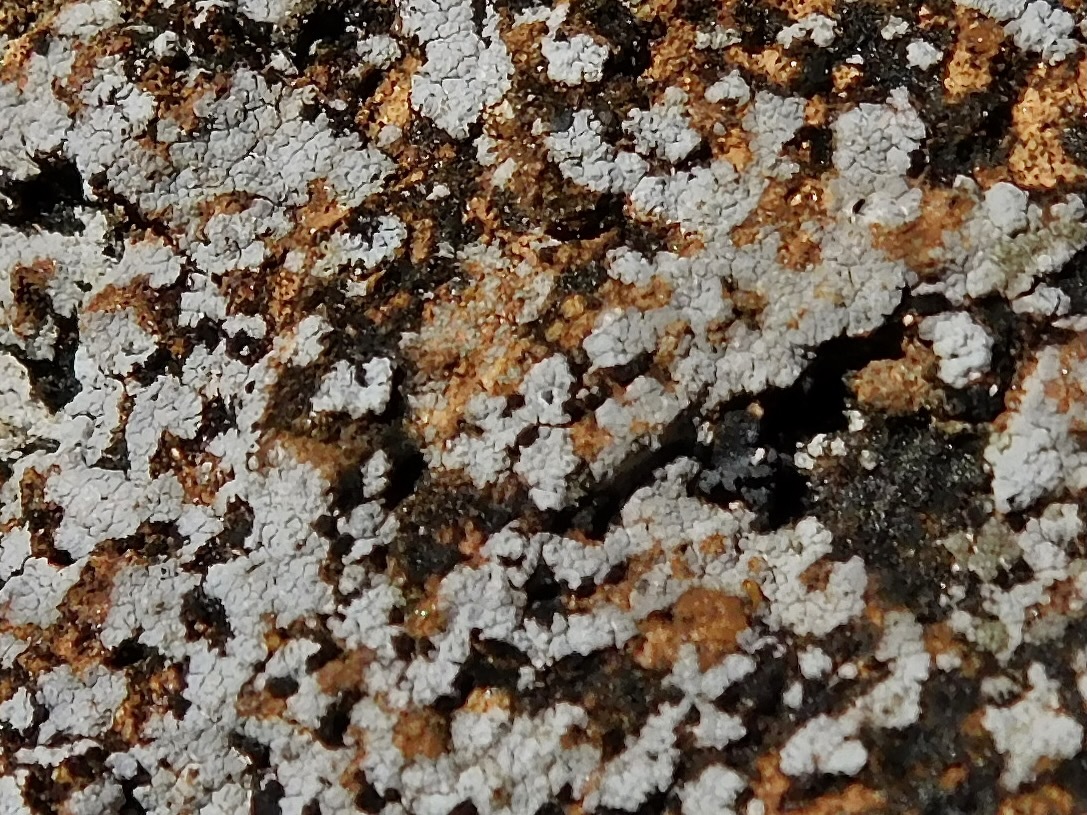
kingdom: Fungi
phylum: Ascomycota
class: Lecanoromycetes
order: Pertusariales
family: Megasporaceae
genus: Aspicilia
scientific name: Aspicilia laevata
